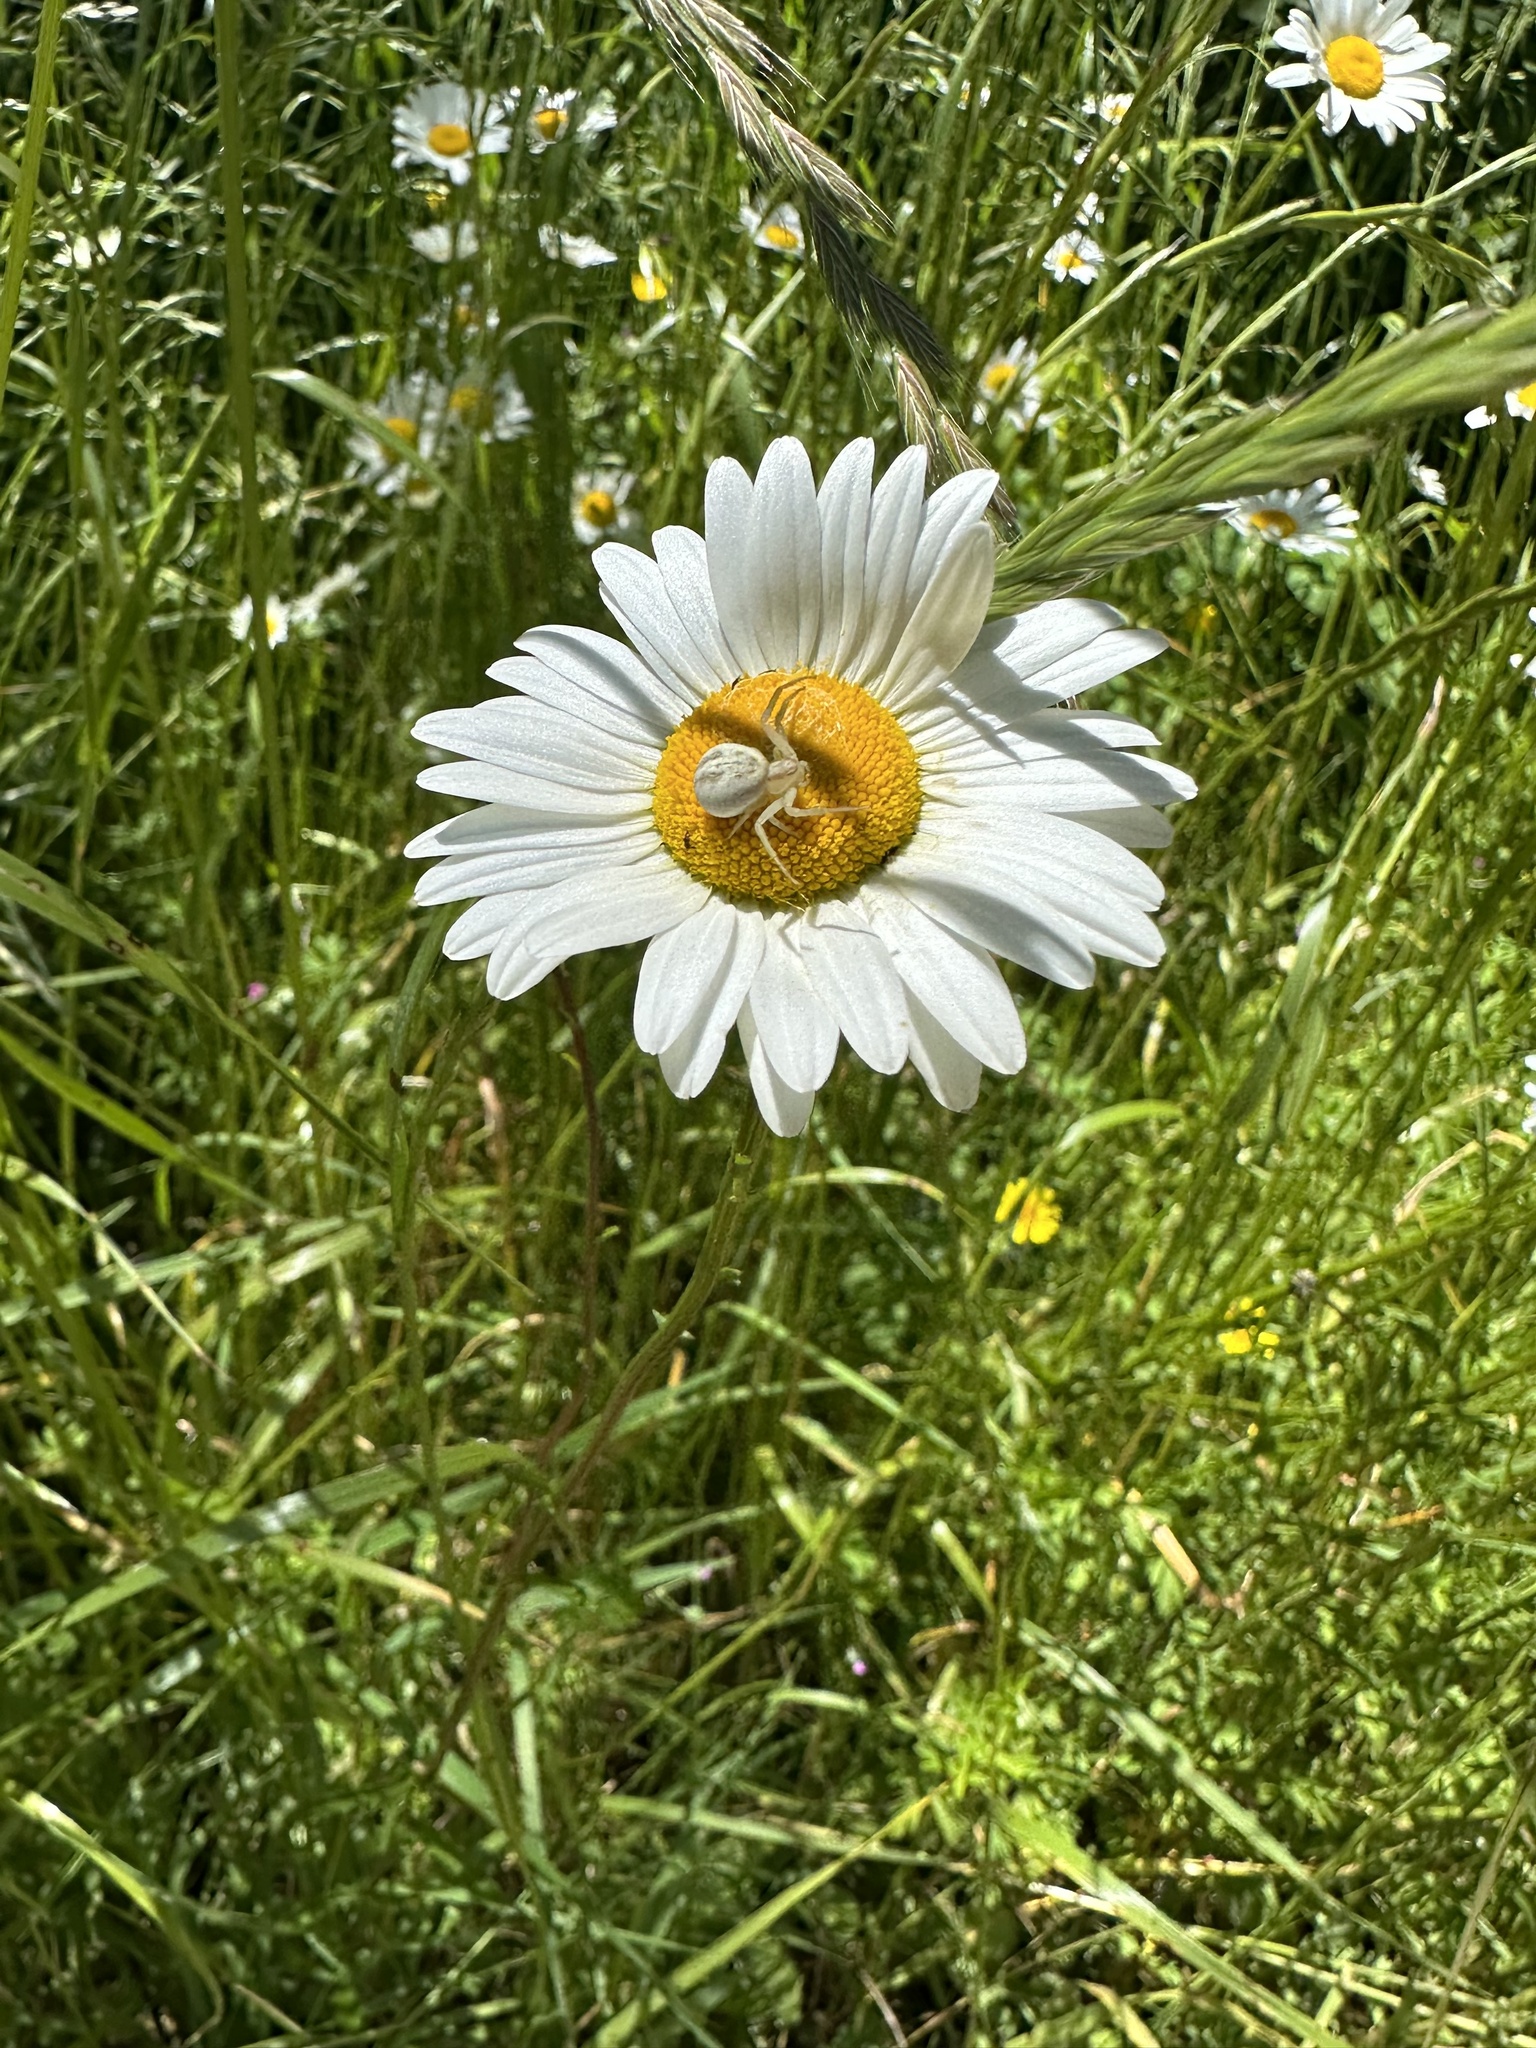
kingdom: Animalia
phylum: Arthropoda
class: Arachnida
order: Araneae
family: Thomisidae
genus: Misumenops
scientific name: Misumenops temibilis
